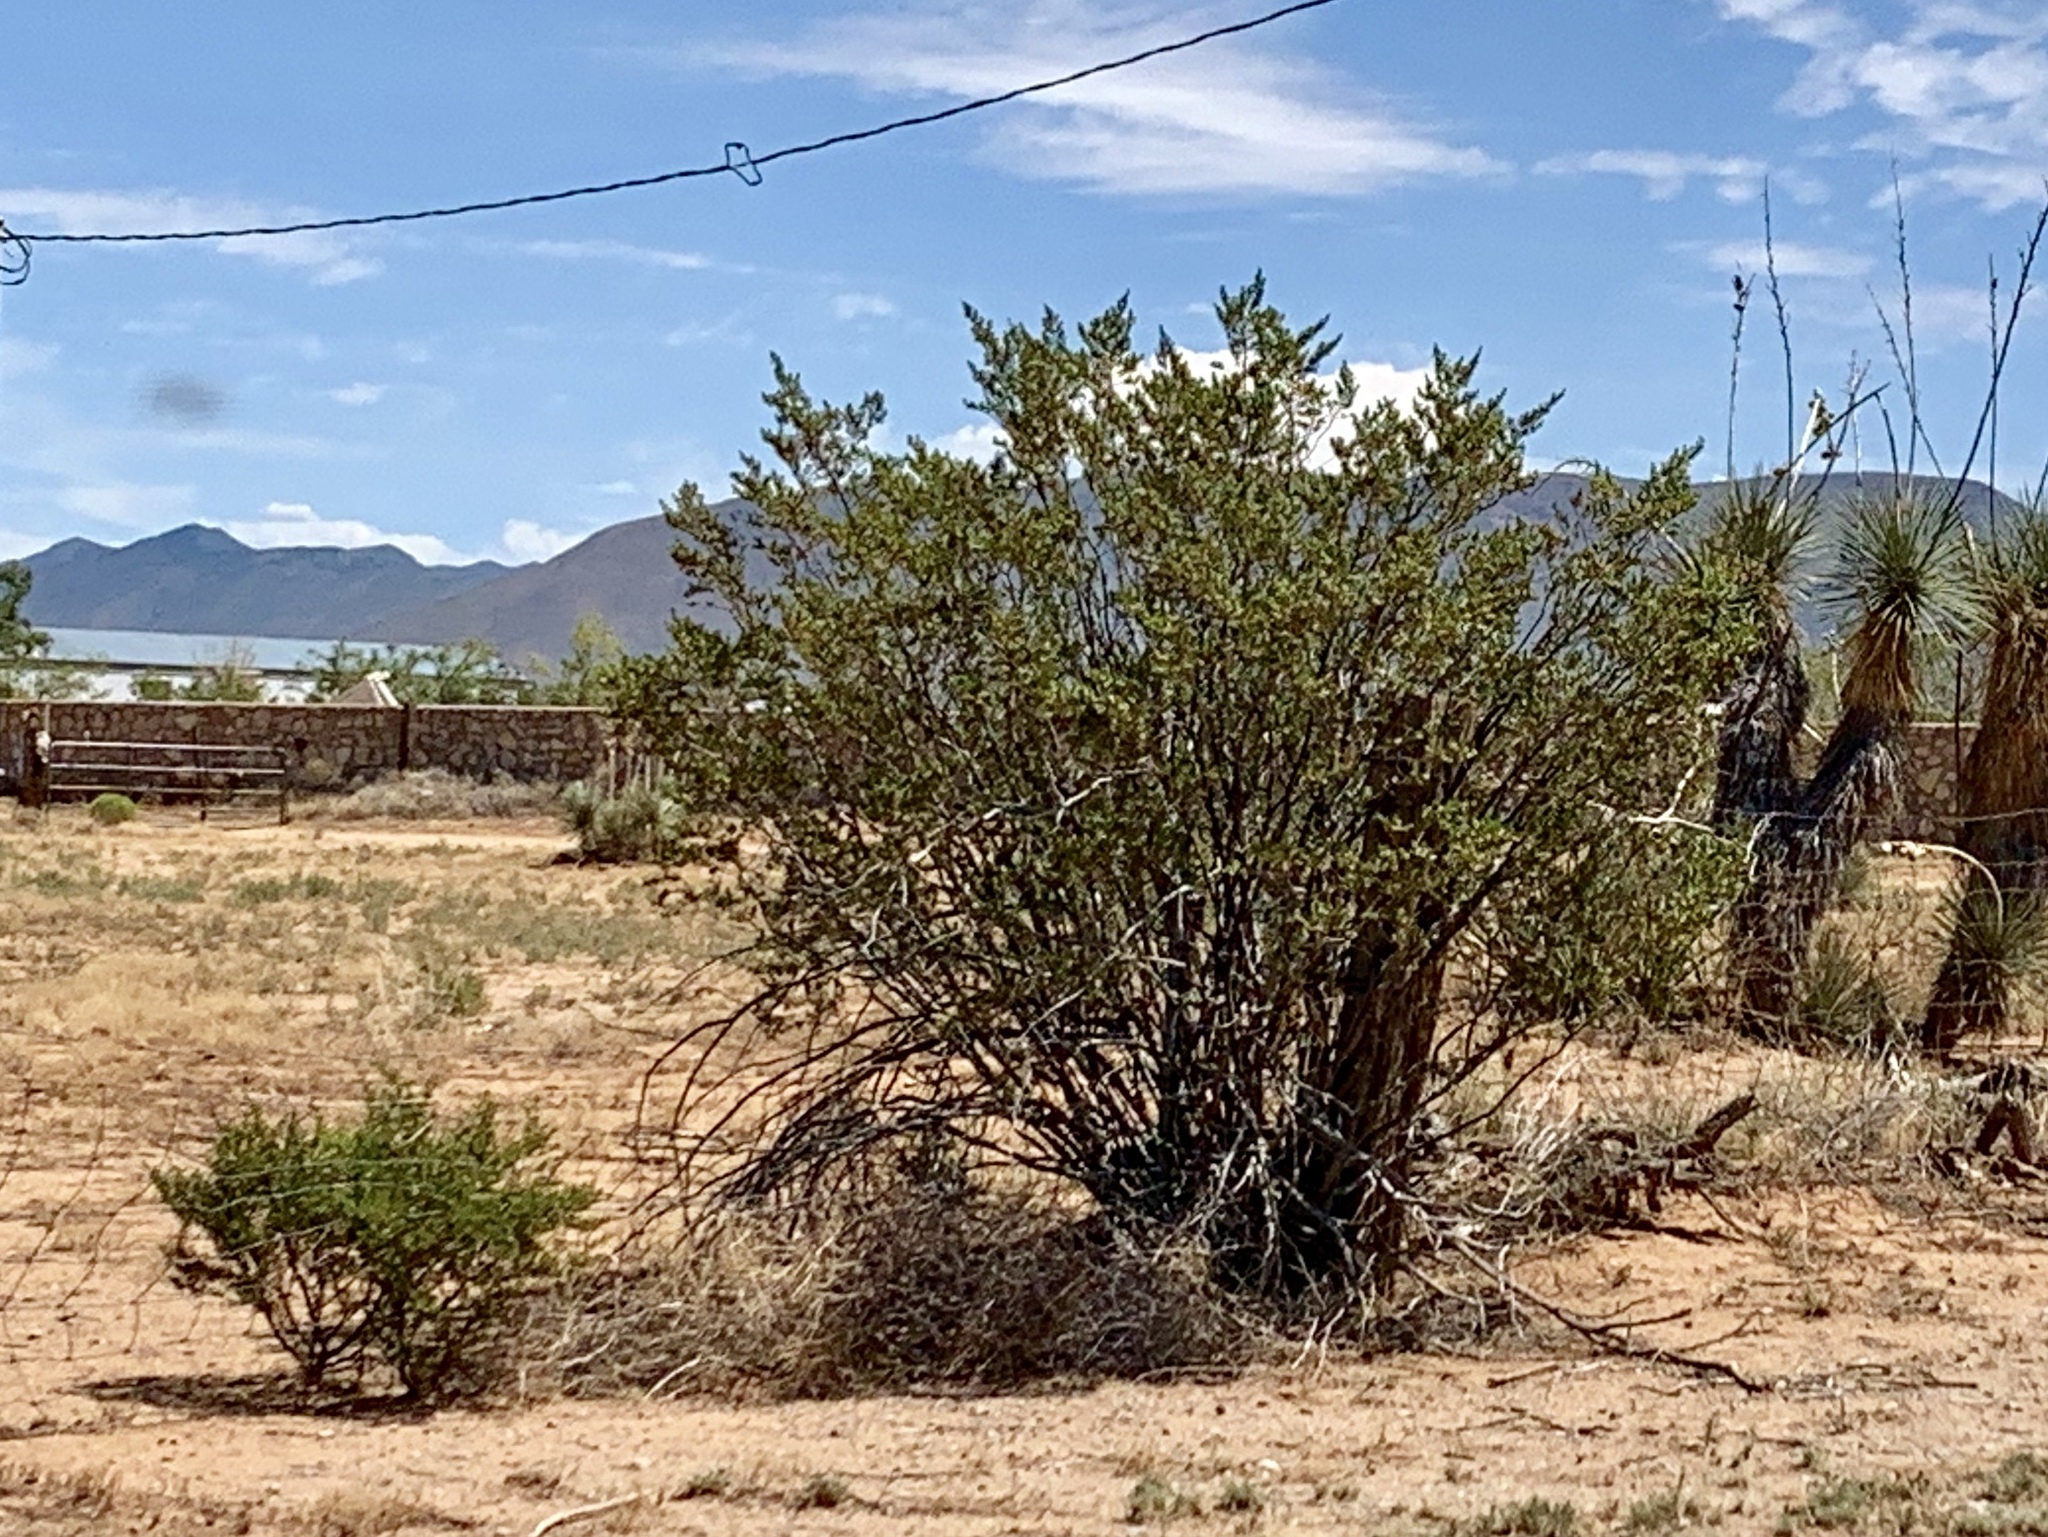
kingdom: Plantae
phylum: Tracheophyta
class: Magnoliopsida
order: Zygophyllales
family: Zygophyllaceae
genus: Larrea
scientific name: Larrea tridentata
